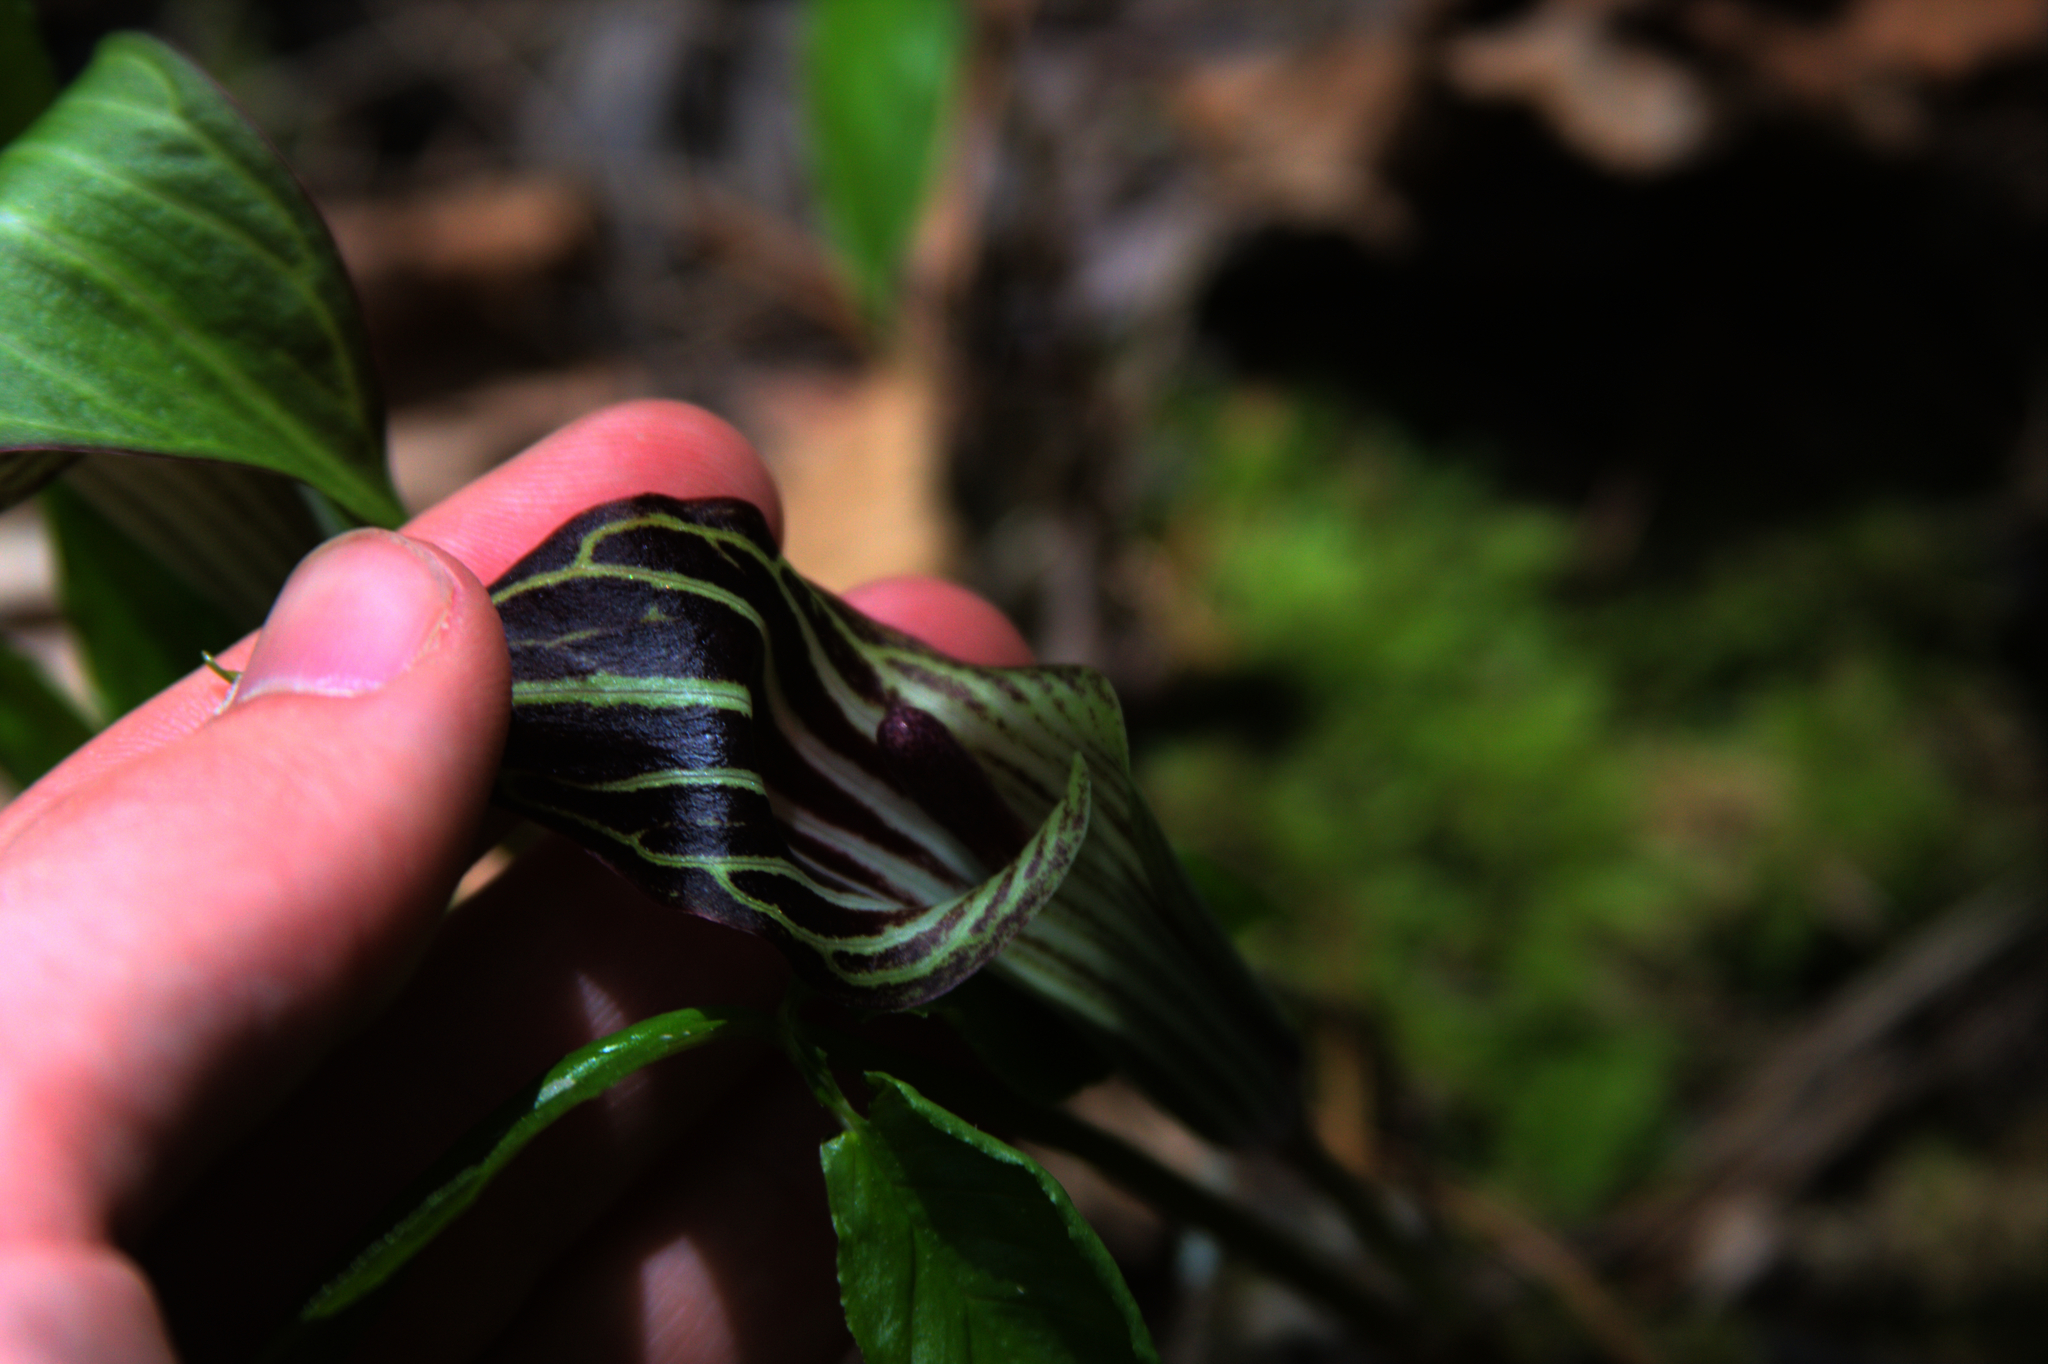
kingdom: Plantae
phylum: Tracheophyta
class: Liliopsida
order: Alismatales
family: Araceae
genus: Arisaema
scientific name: Arisaema triphyllum
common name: Jack-in-the-pulpit
